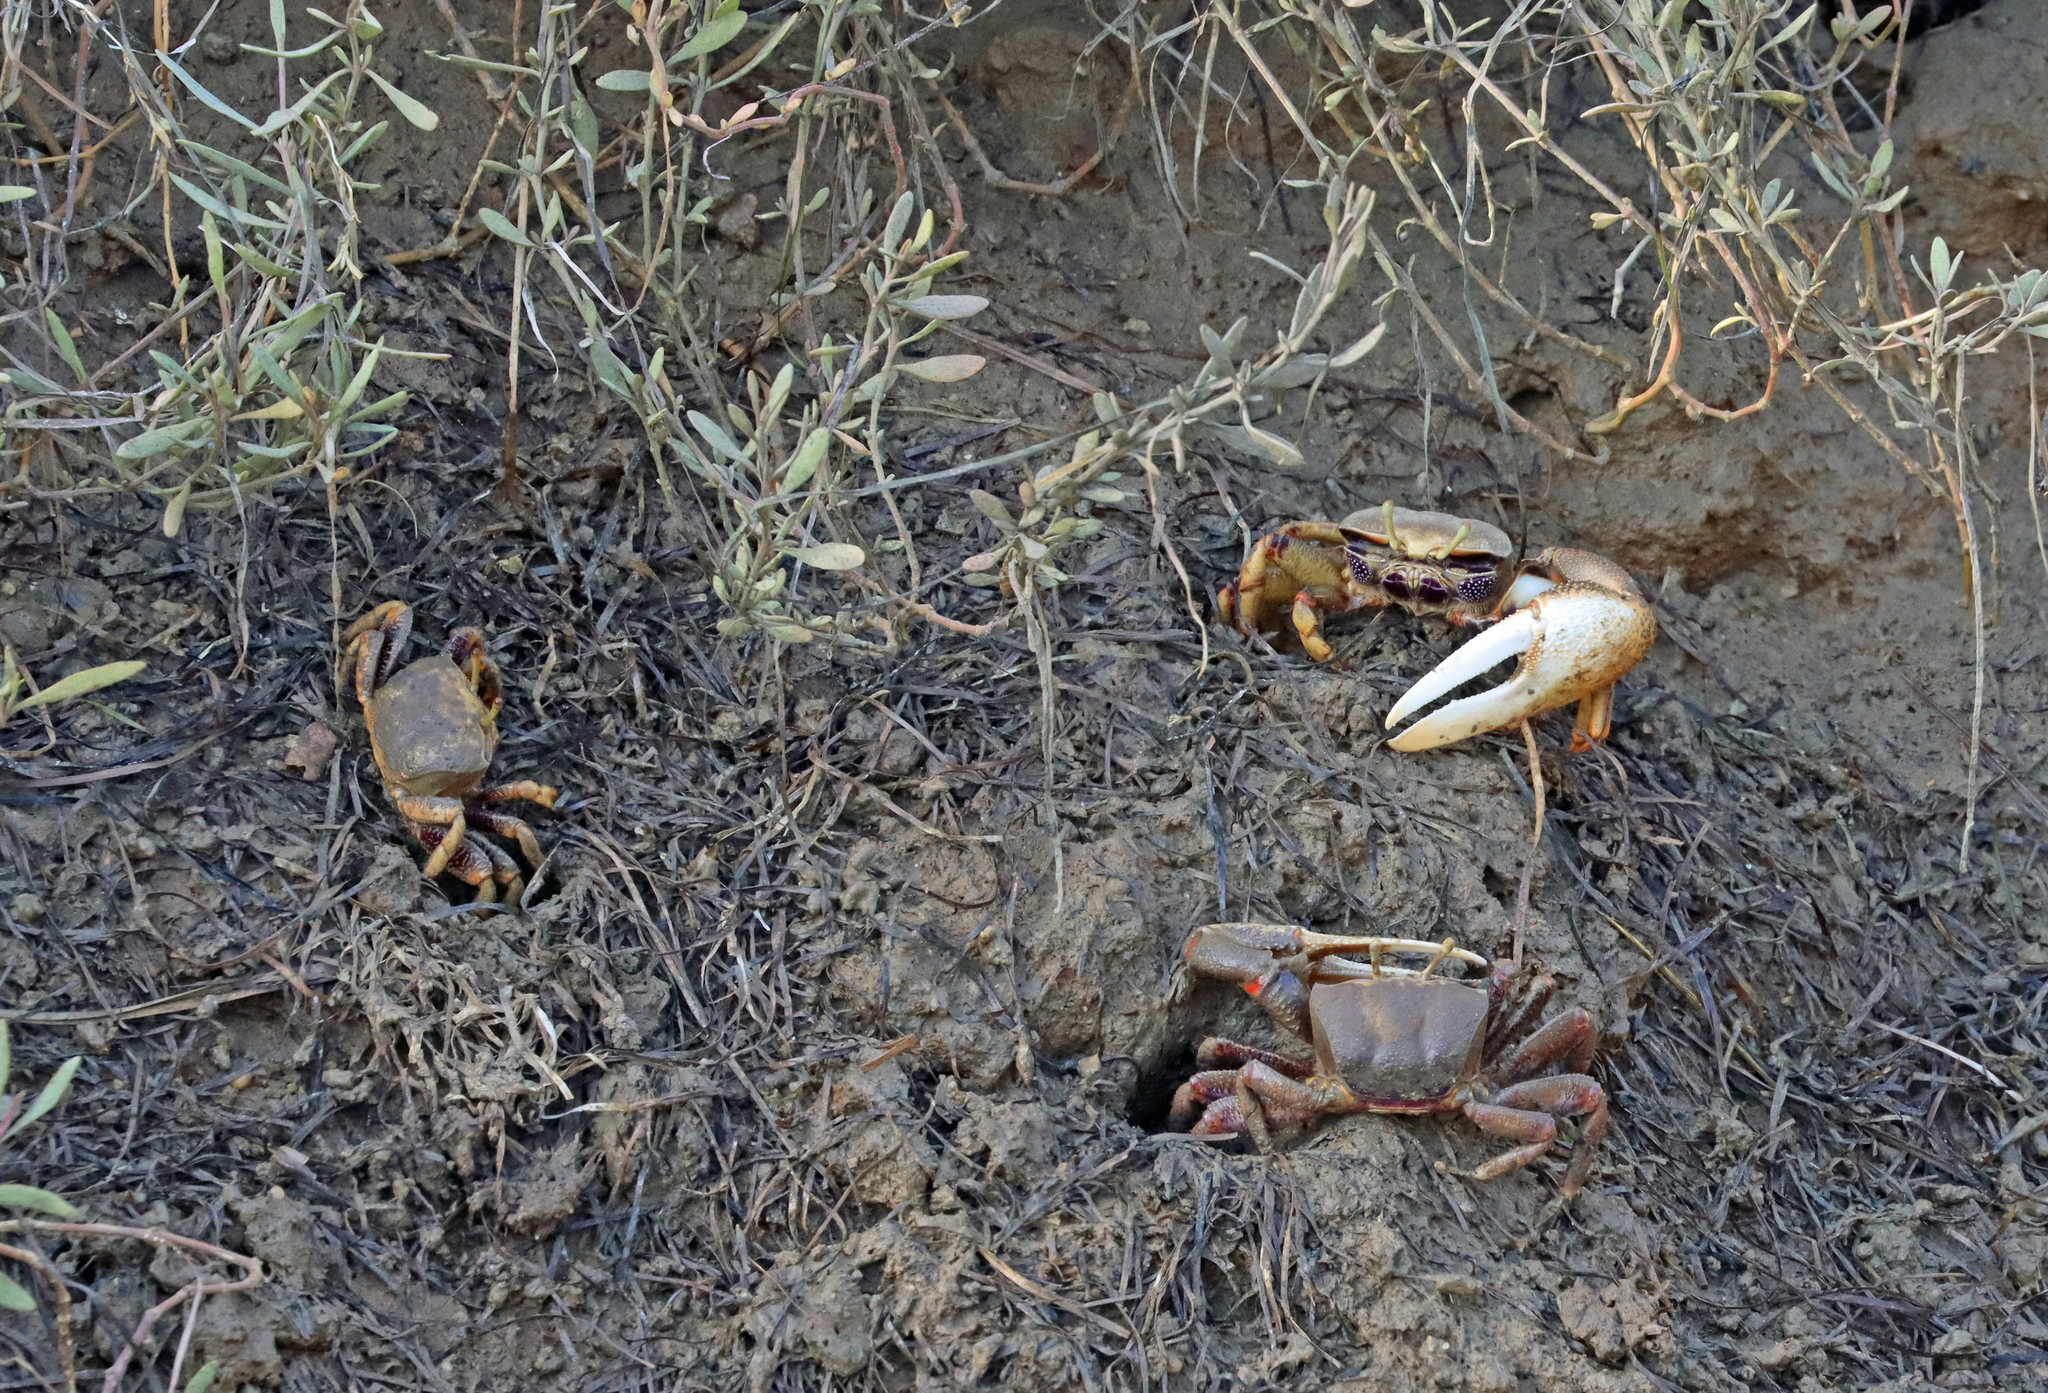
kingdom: Animalia
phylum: Arthropoda
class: Malacostraca
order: Decapoda
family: Ocypodidae
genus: Afruca
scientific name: Afruca tangeri
